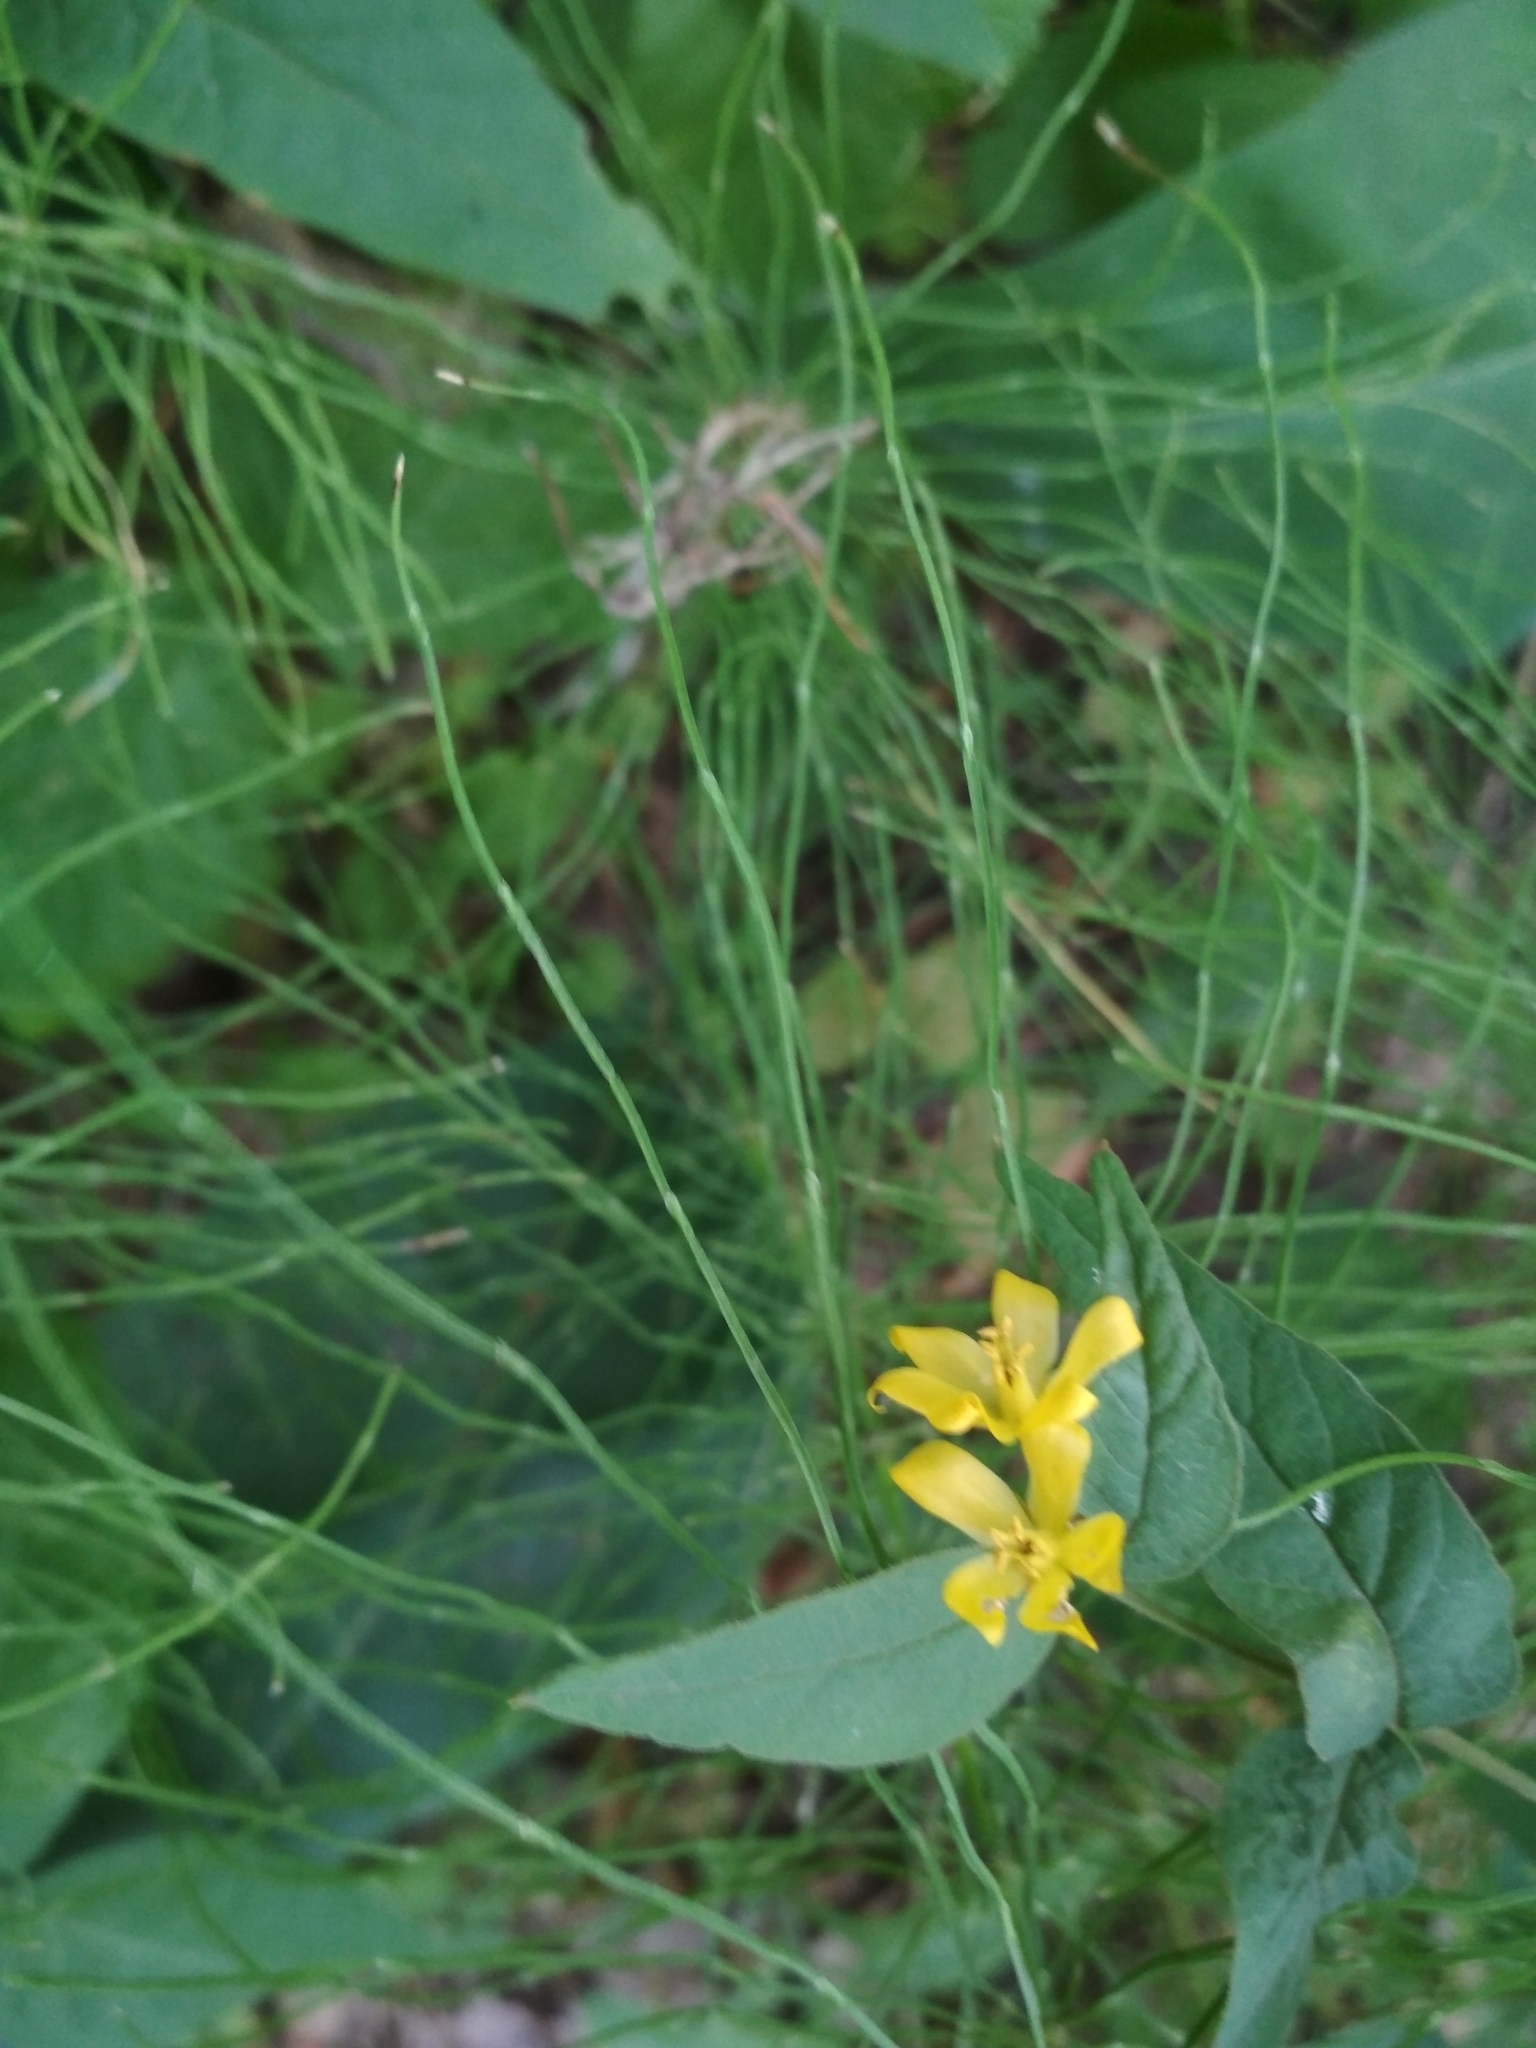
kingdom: Plantae
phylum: Tracheophyta
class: Magnoliopsida
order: Ericales
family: Primulaceae
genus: Lysimachia
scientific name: Lysimachia vulgaris
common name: Yellow loosestrife
